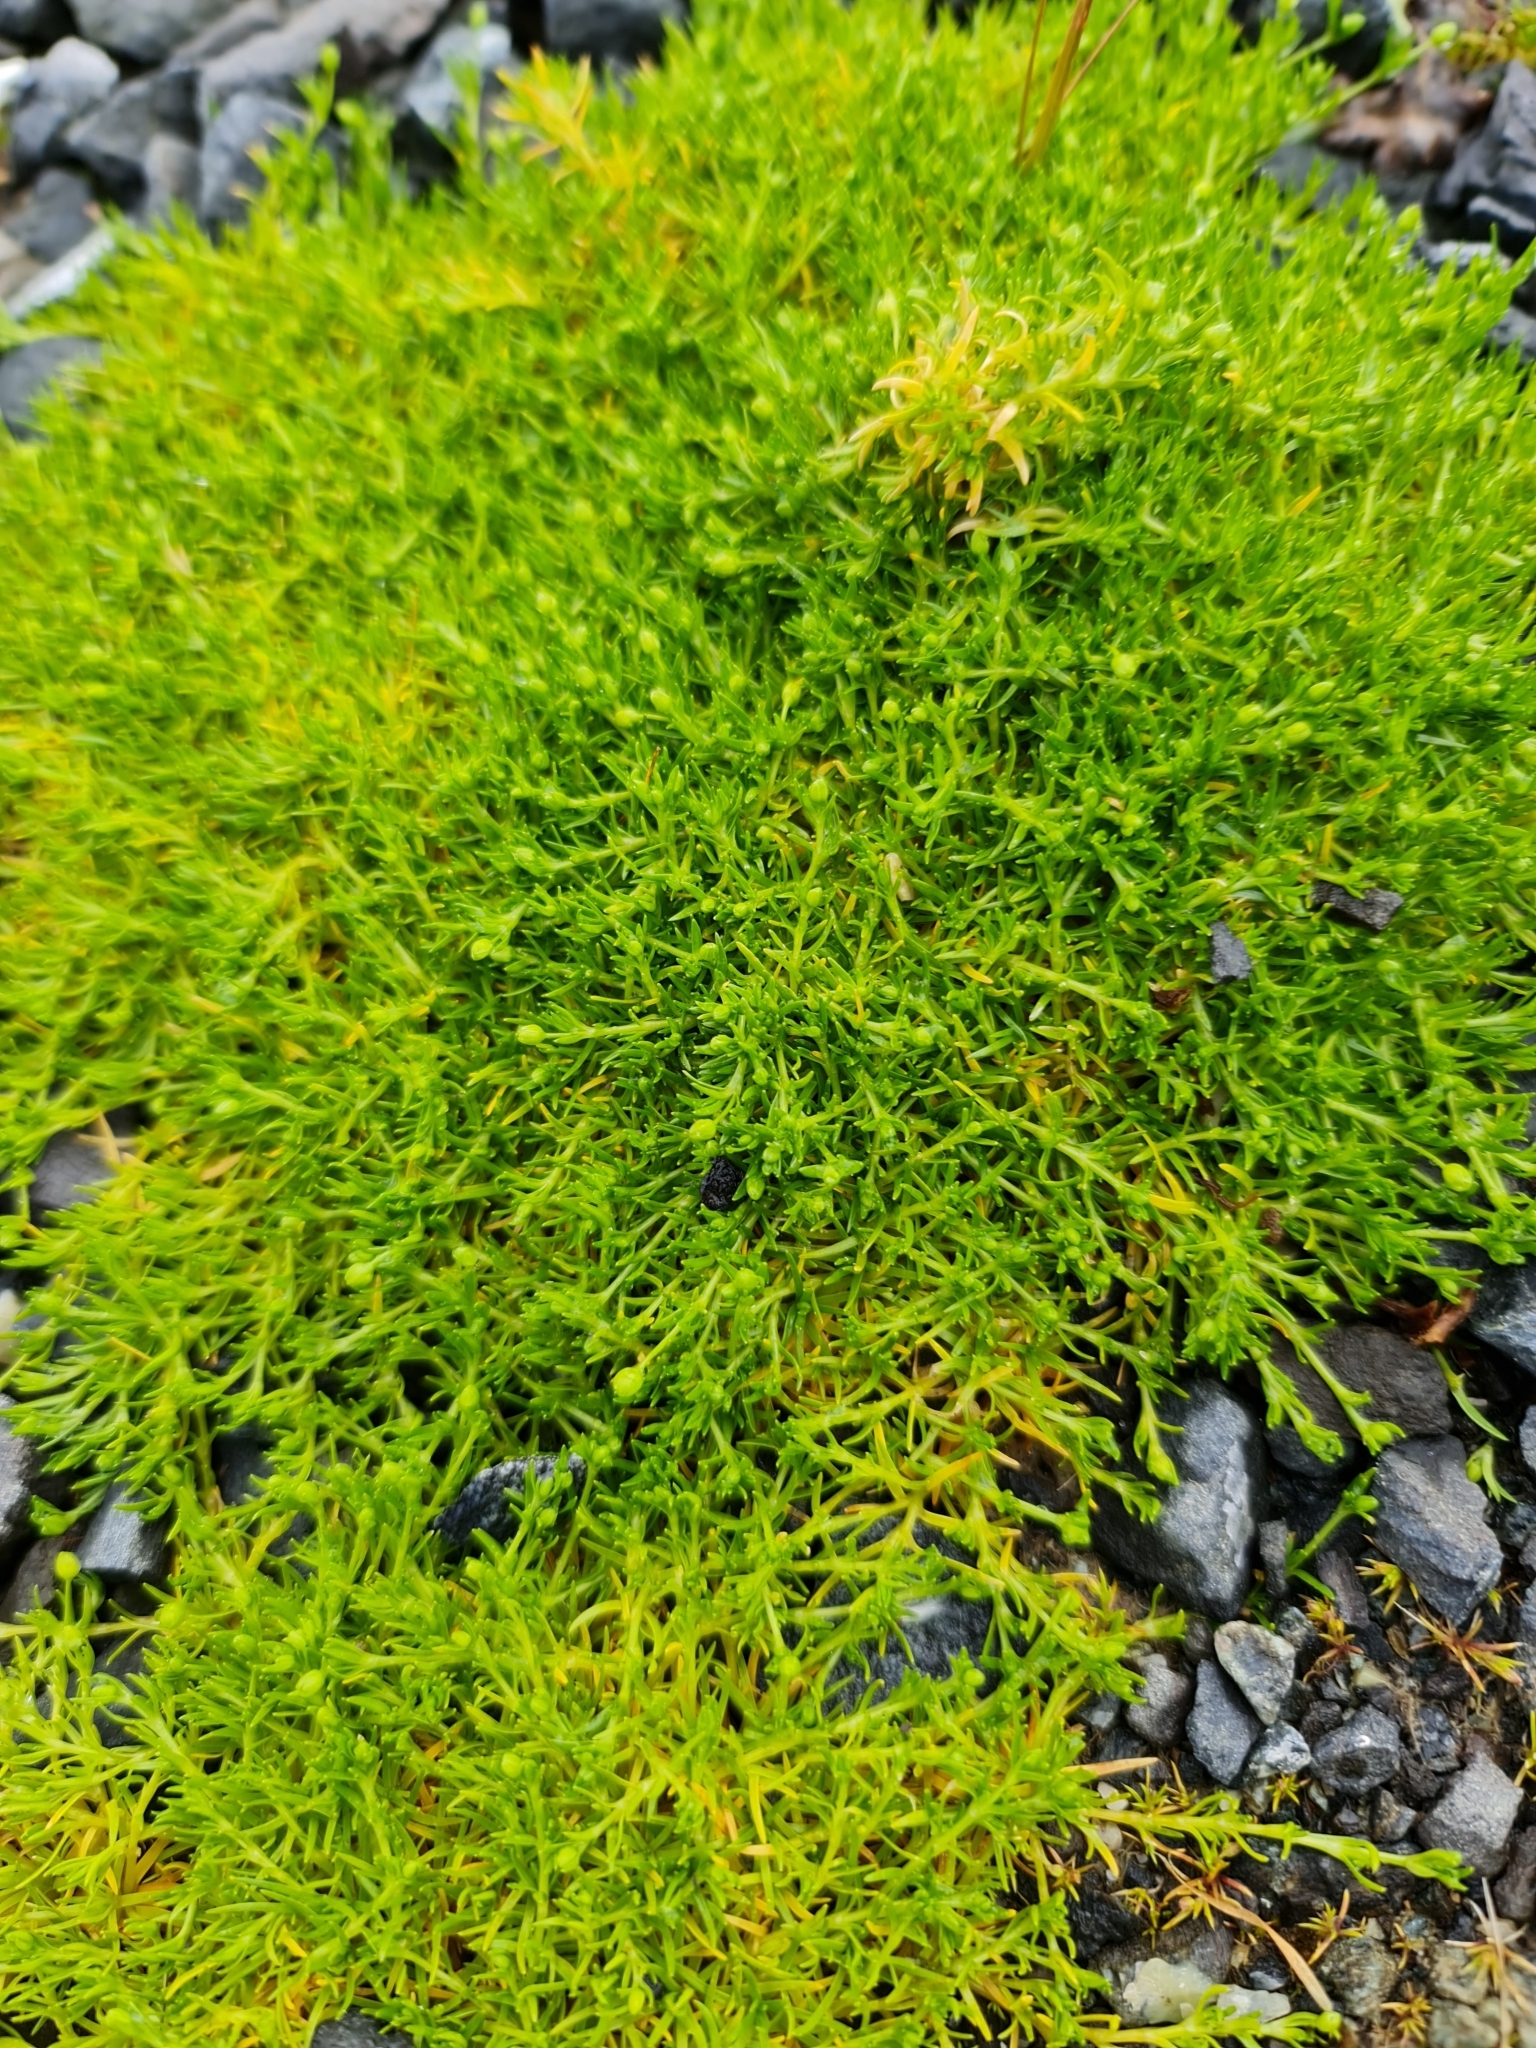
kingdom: Plantae
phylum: Tracheophyta
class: Magnoliopsida
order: Caryophyllales
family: Caryophyllaceae
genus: Sagina
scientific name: Sagina procumbens
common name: Procumbent pearlwort
